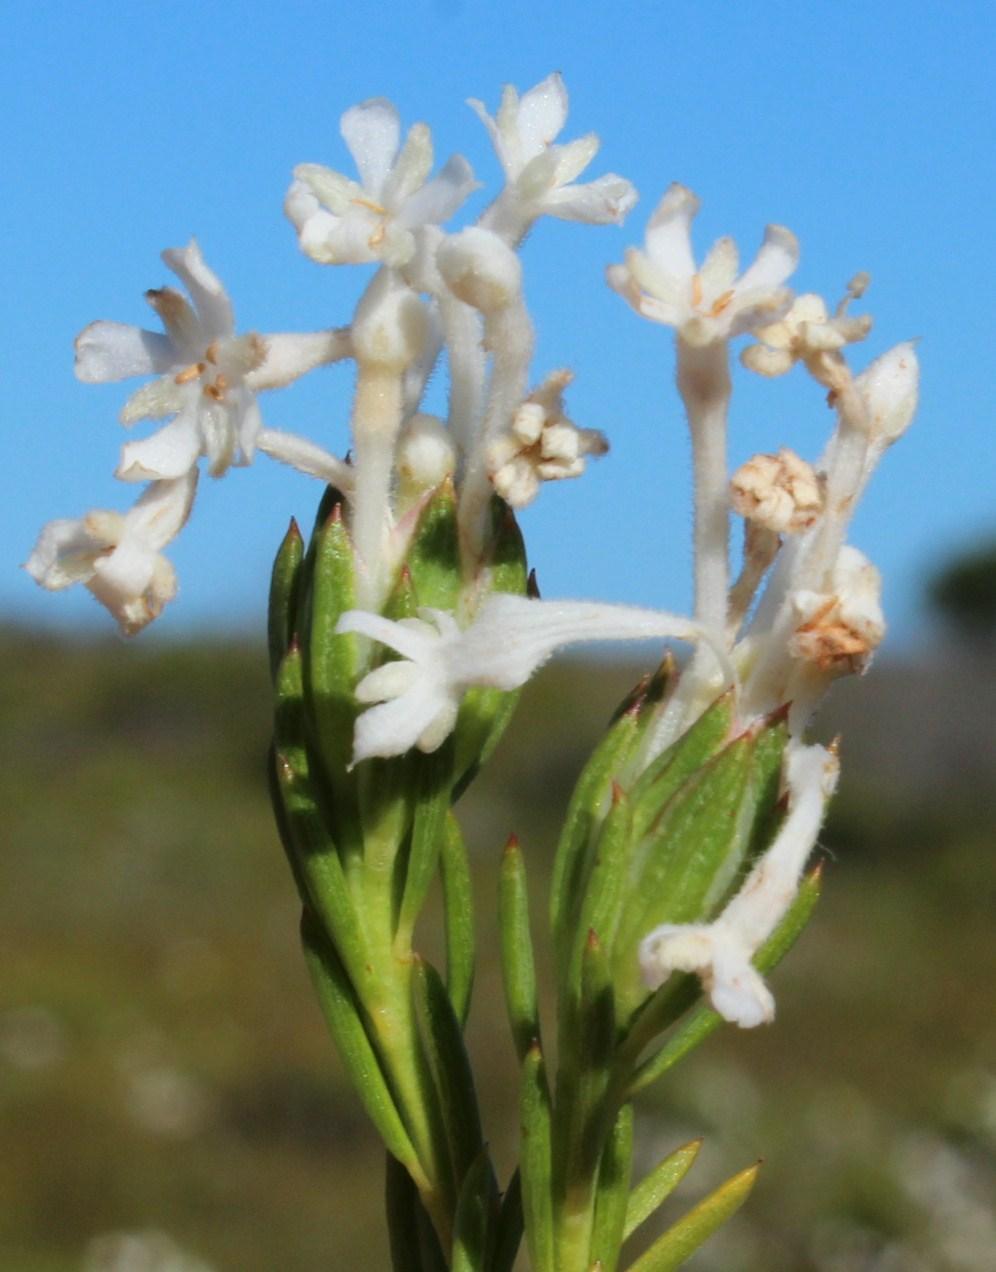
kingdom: Plantae
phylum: Tracheophyta
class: Magnoliopsida
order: Malvales
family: Thymelaeaceae
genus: Gnidia
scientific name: Gnidia pinifolia
